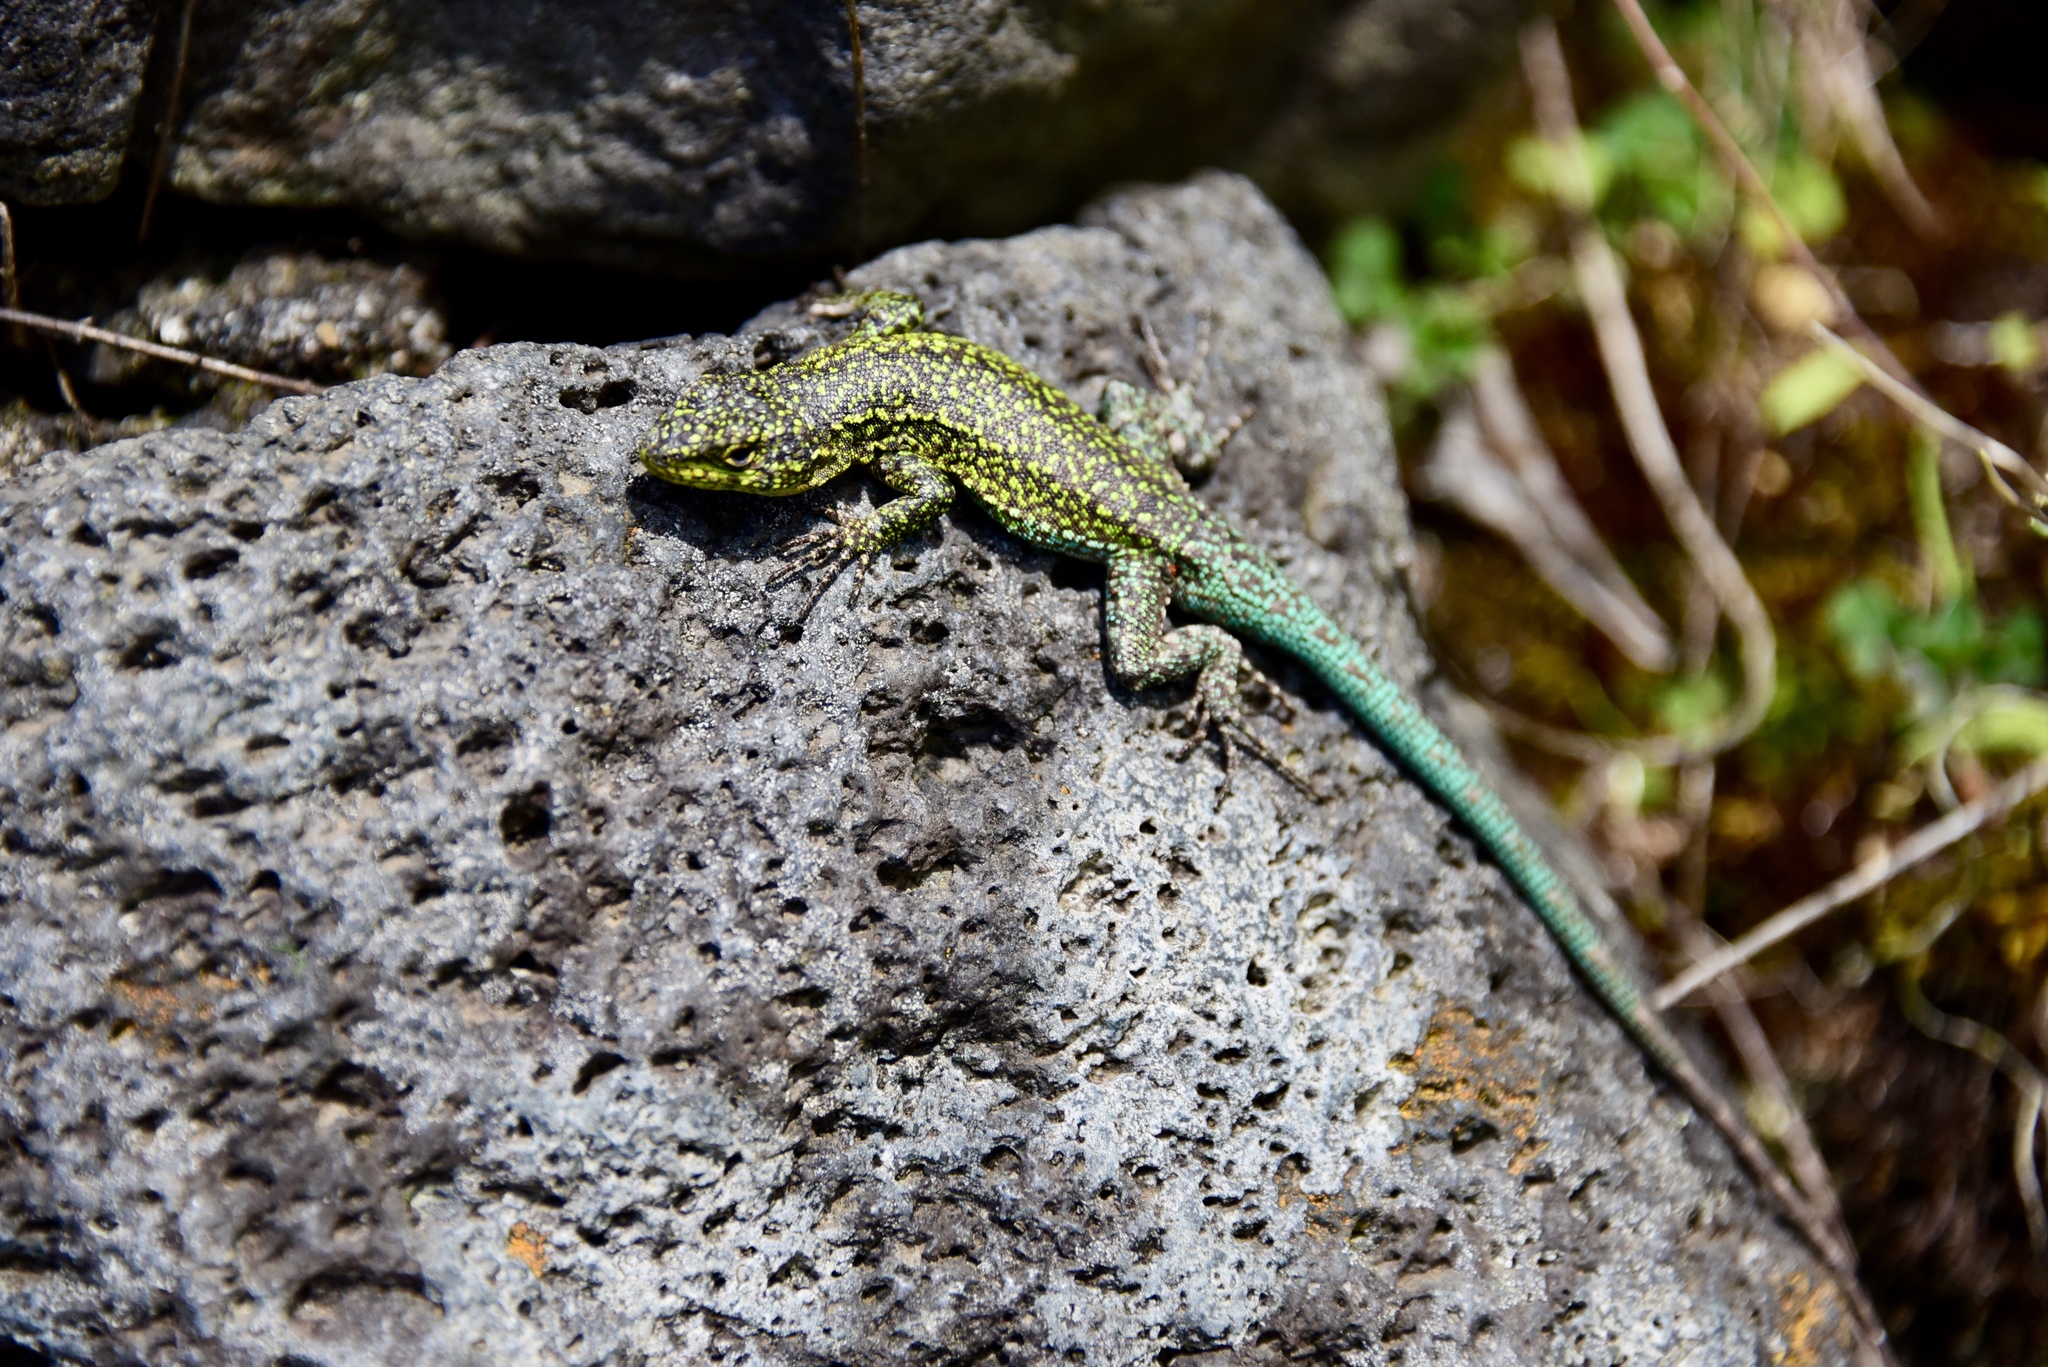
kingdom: Animalia
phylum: Chordata
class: Squamata
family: Liolaemidae
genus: Liolaemus
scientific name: Liolaemus tenuis
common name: Thin tree iguana
